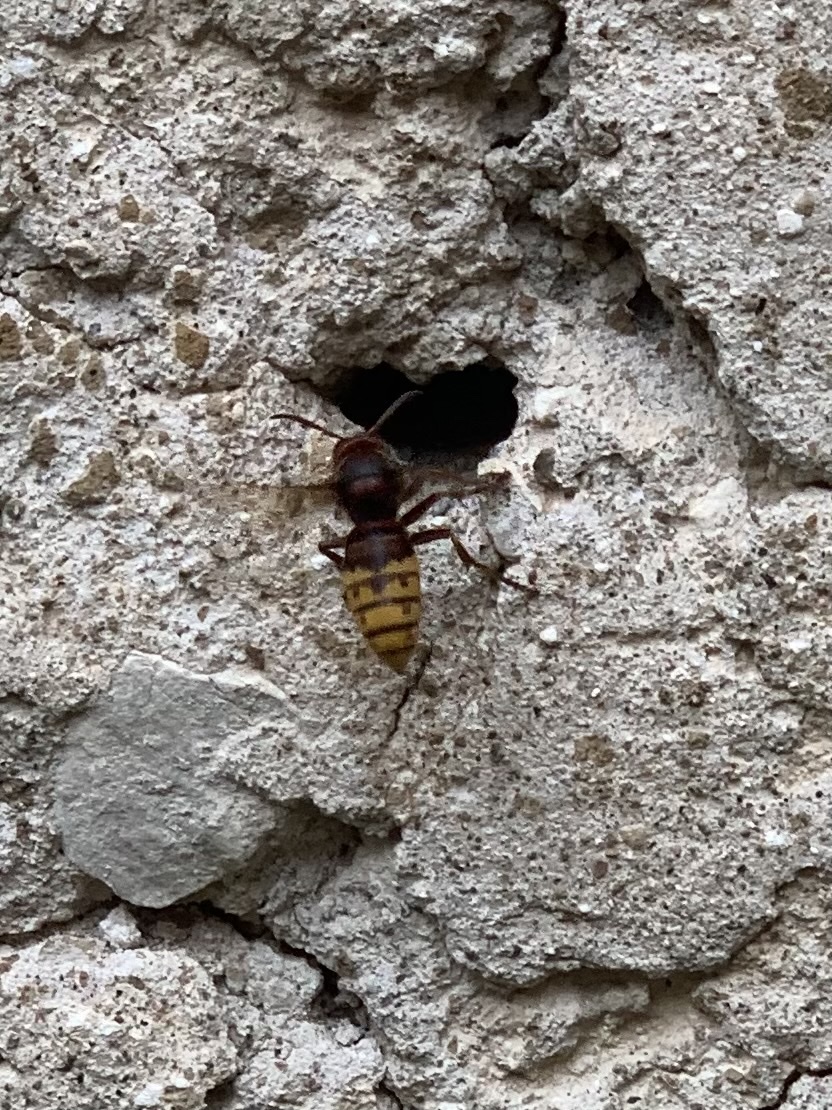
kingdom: Animalia
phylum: Arthropoda
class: Insecta
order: Hymenoptera
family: Vespidae
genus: Vespa
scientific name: Vespa crabro
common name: Hornet
